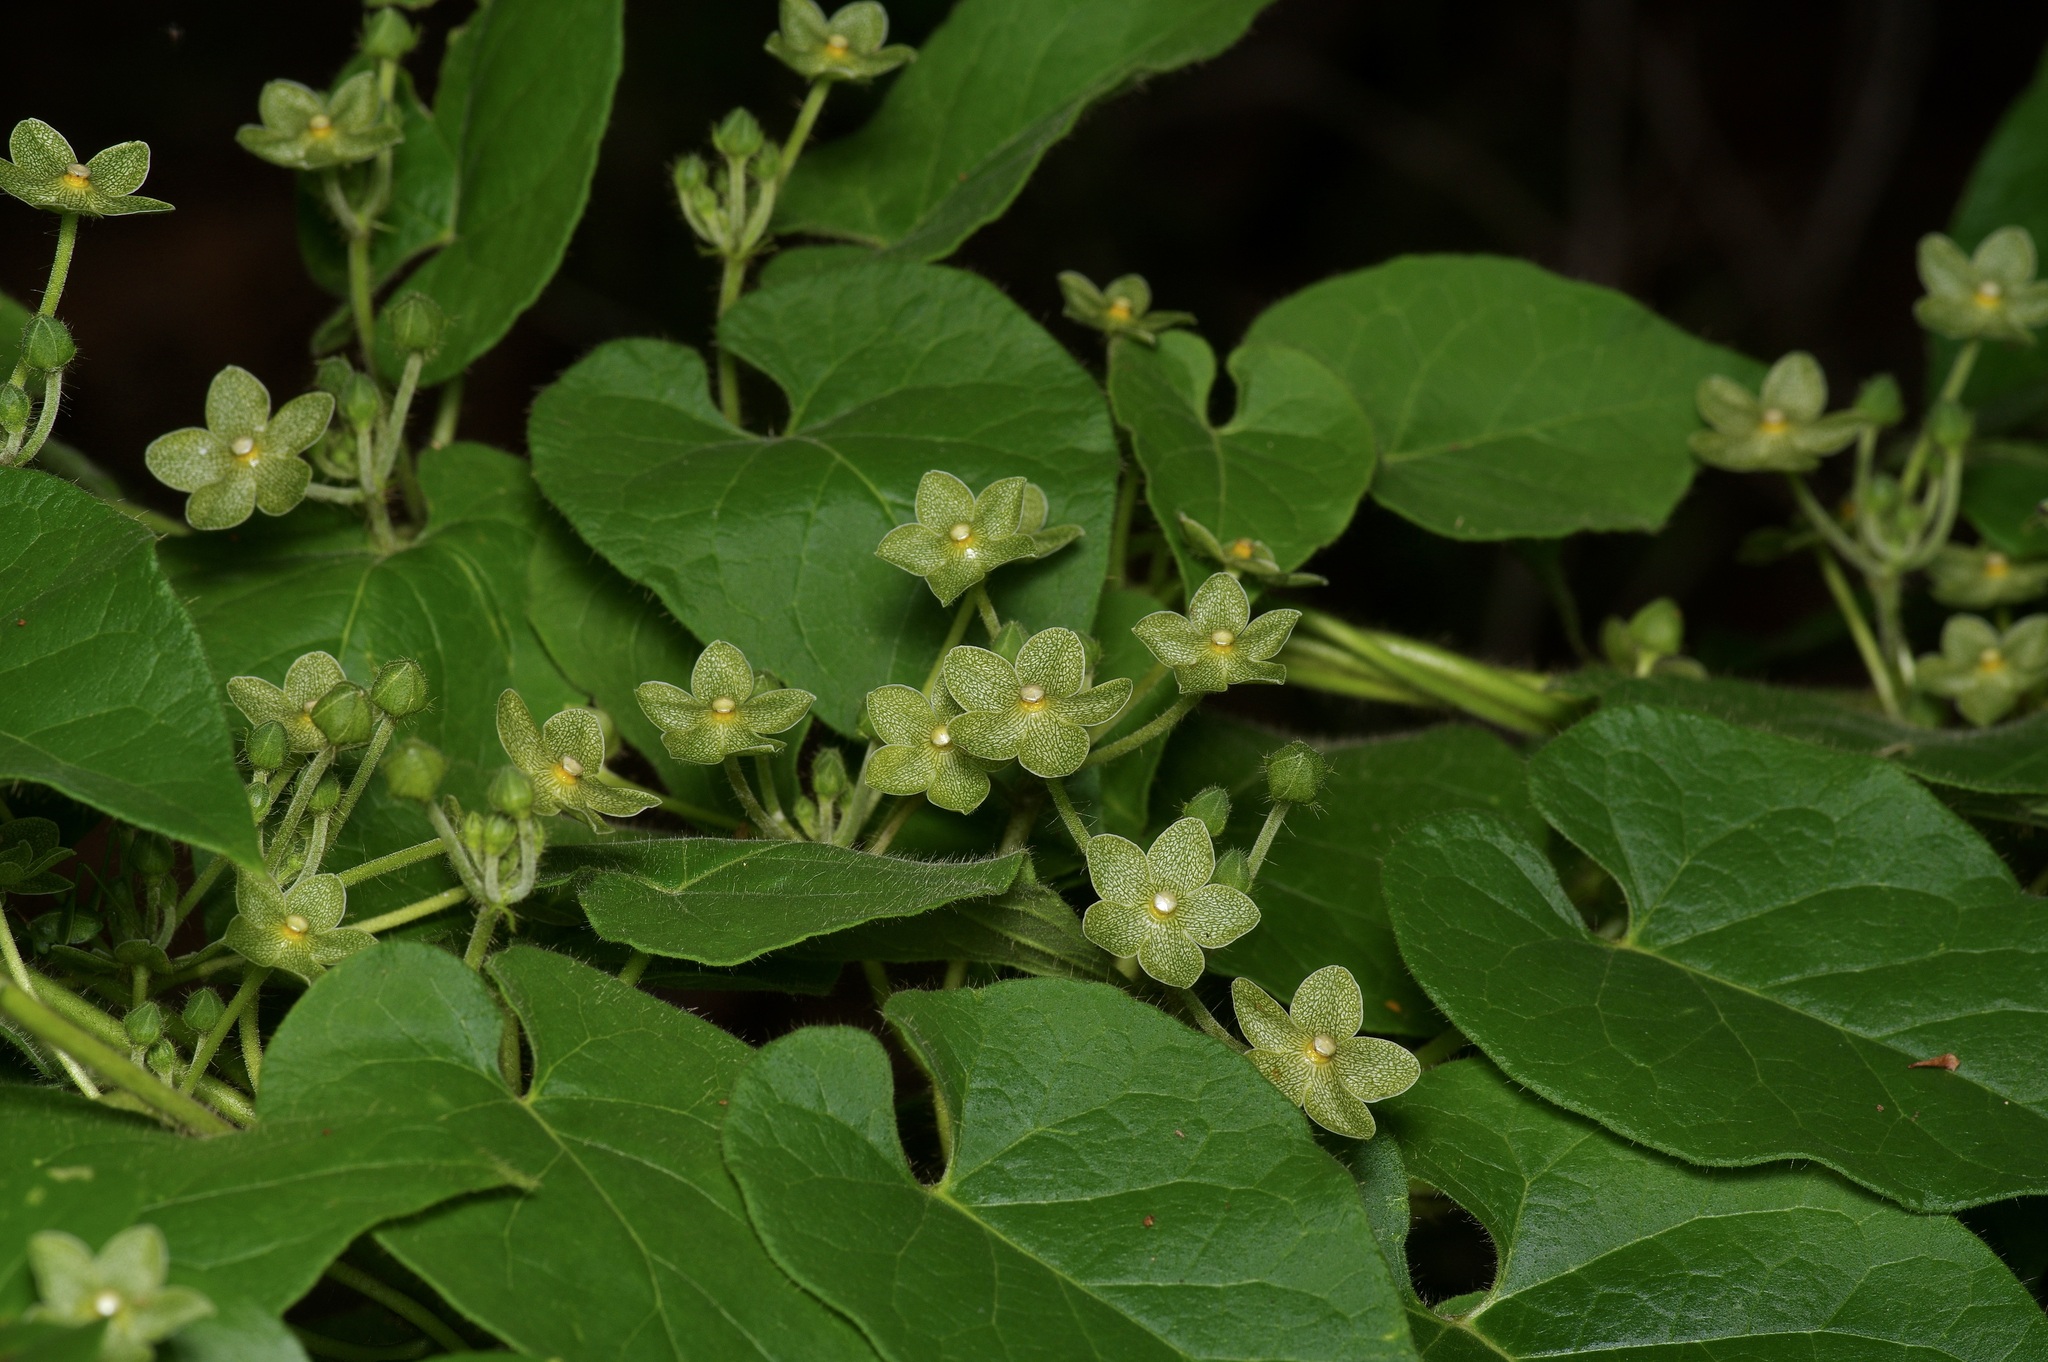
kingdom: Plantae
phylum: Tracheophyta
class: Magnoliopsida
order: Gentianales
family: Apocynaceae
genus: Dictyanthus
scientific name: Dictyanthus reticulatus
